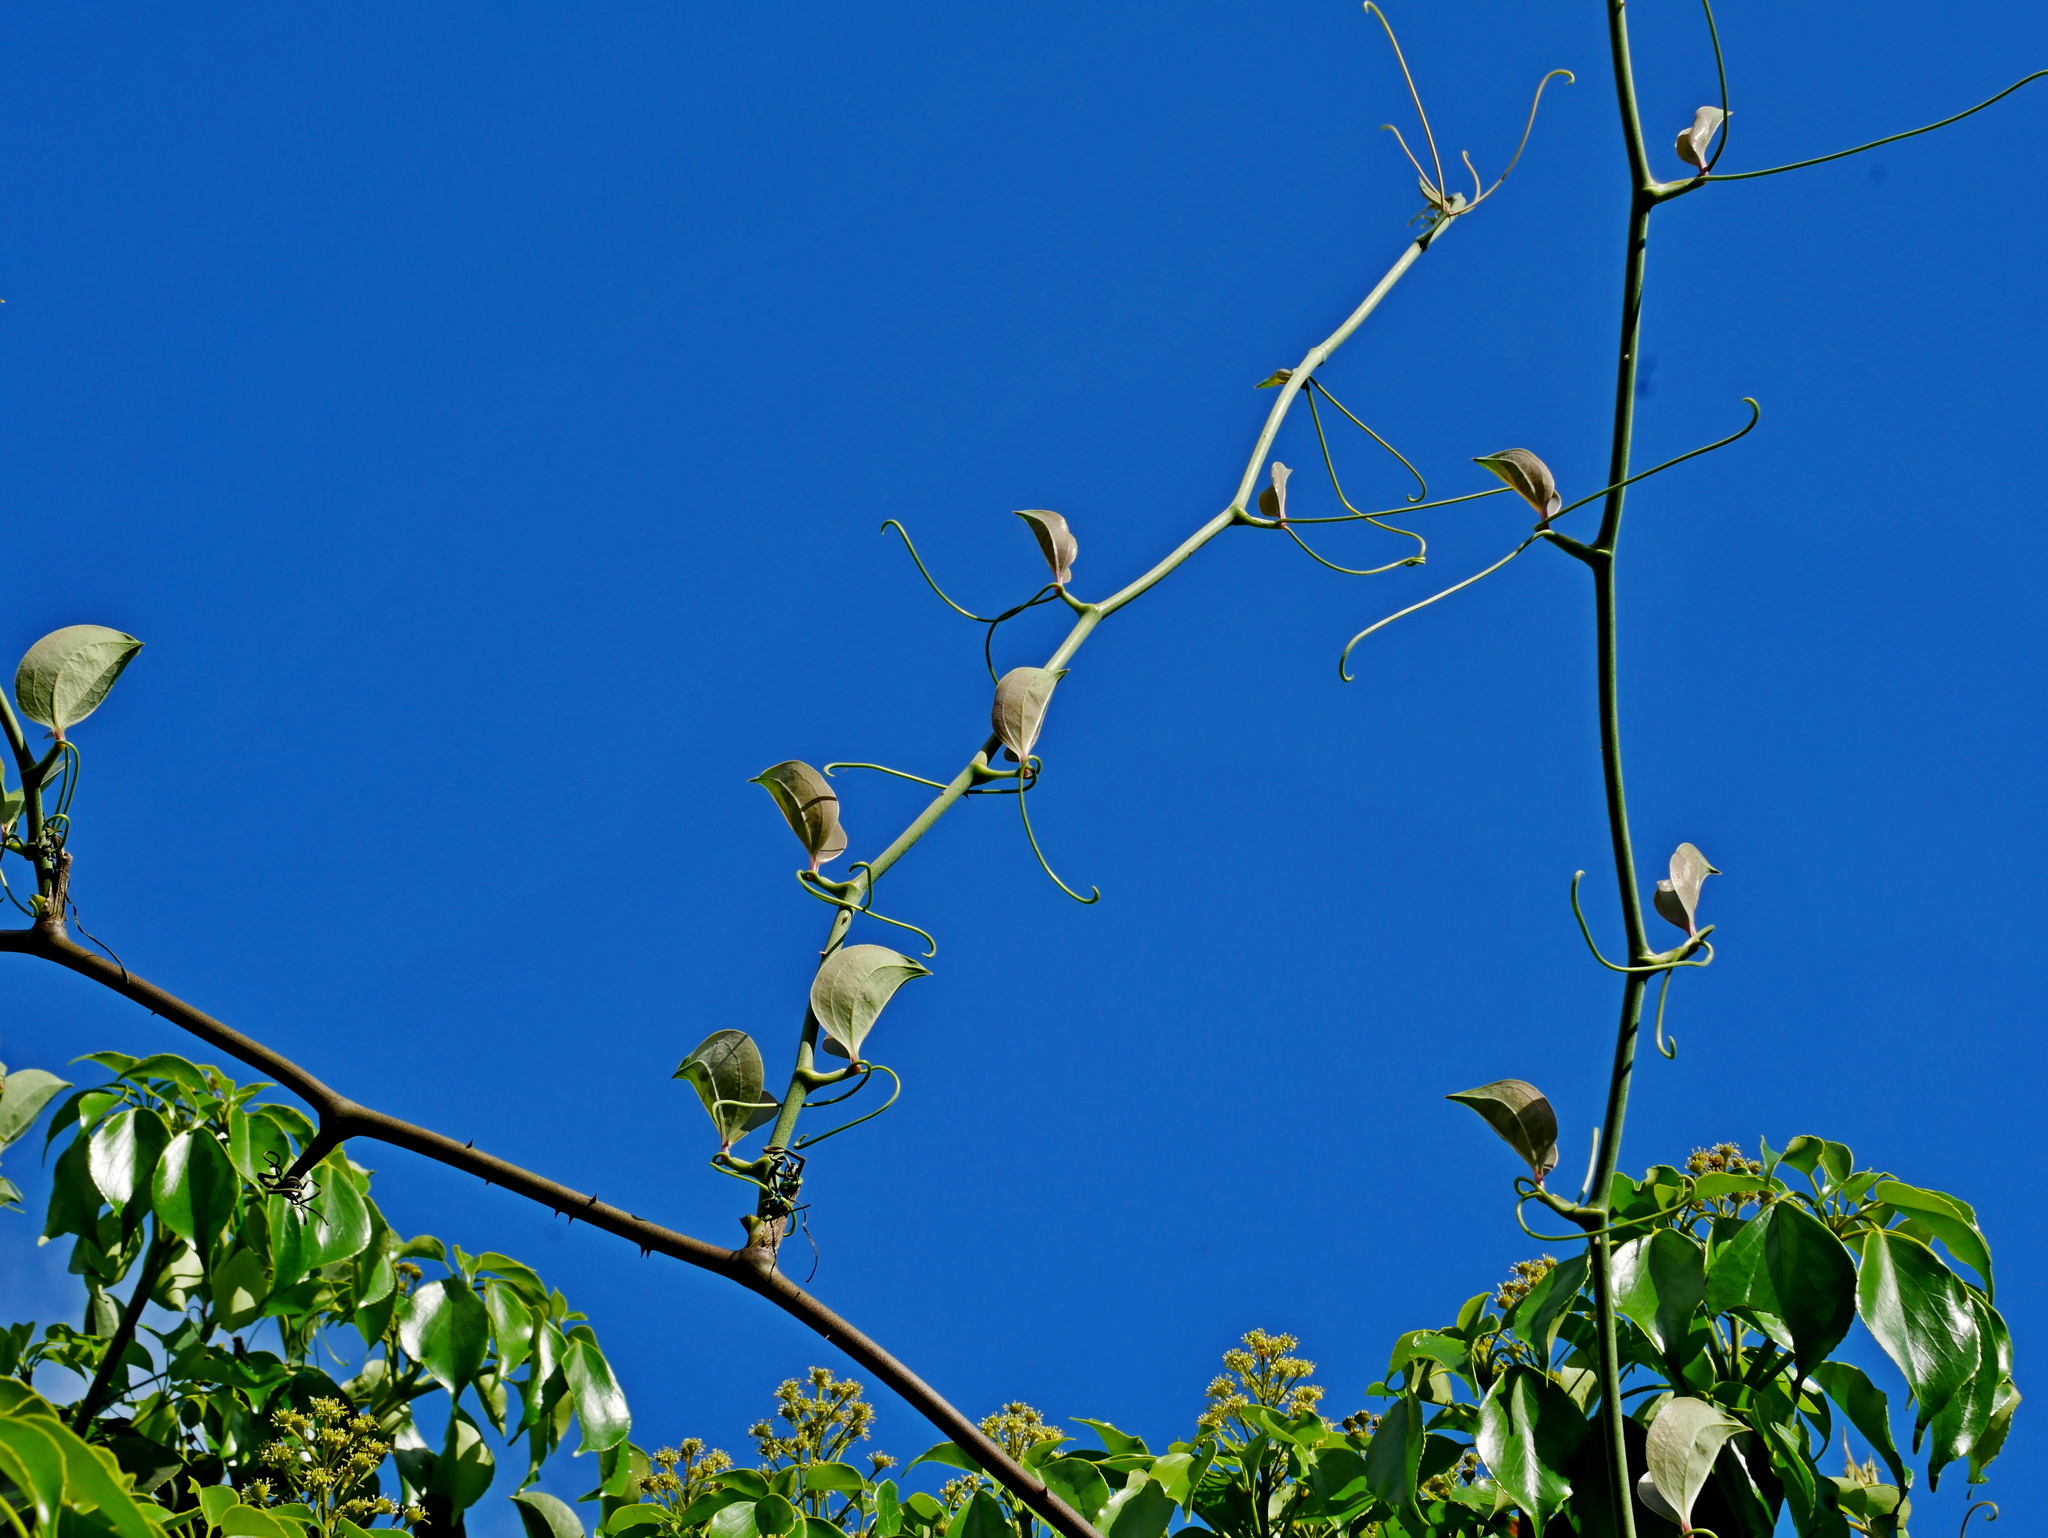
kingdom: Plantae
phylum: Tracheophyta
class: Liliopsida
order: Liliales
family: Smilacaceae
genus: Smilax
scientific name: Smilax china
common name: Chinaroot
